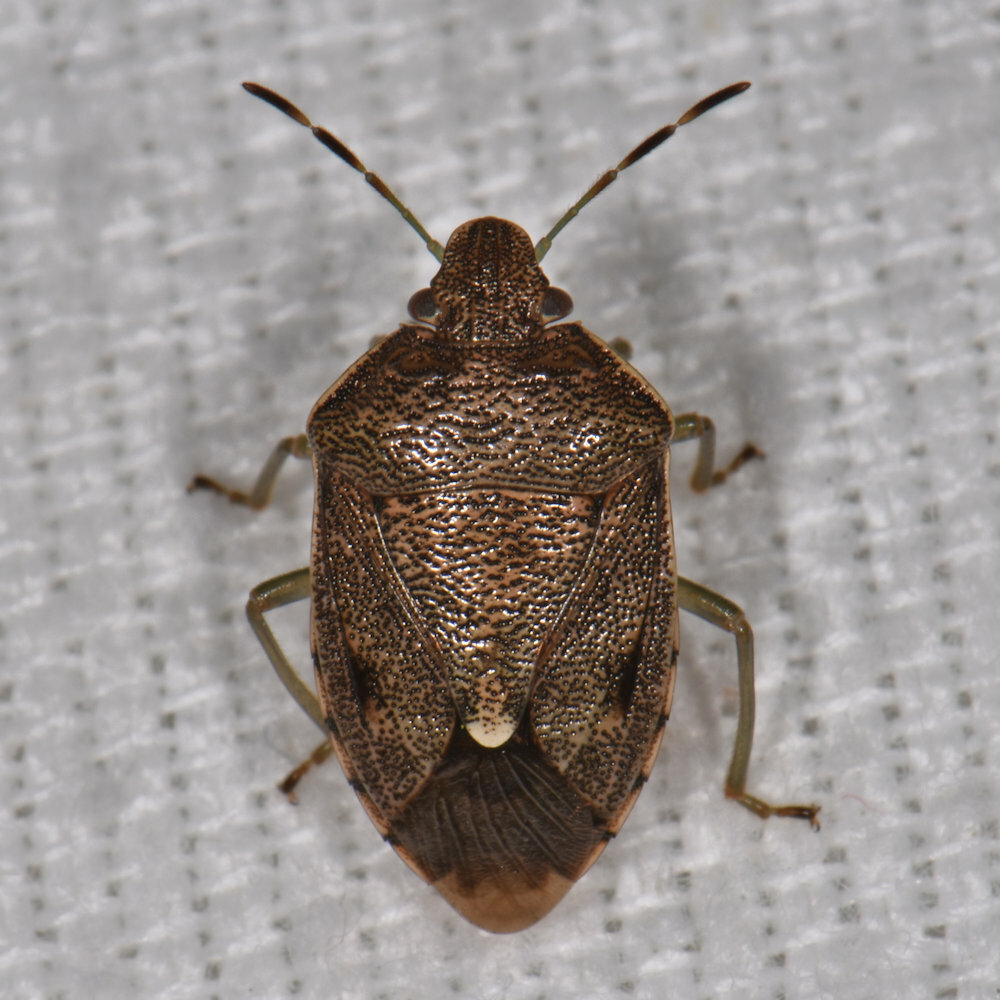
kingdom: Animalia
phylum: Arthropoda
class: Insecta
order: Hemiptera
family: Pentatomidae
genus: Banasa
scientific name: Banasa sordida
